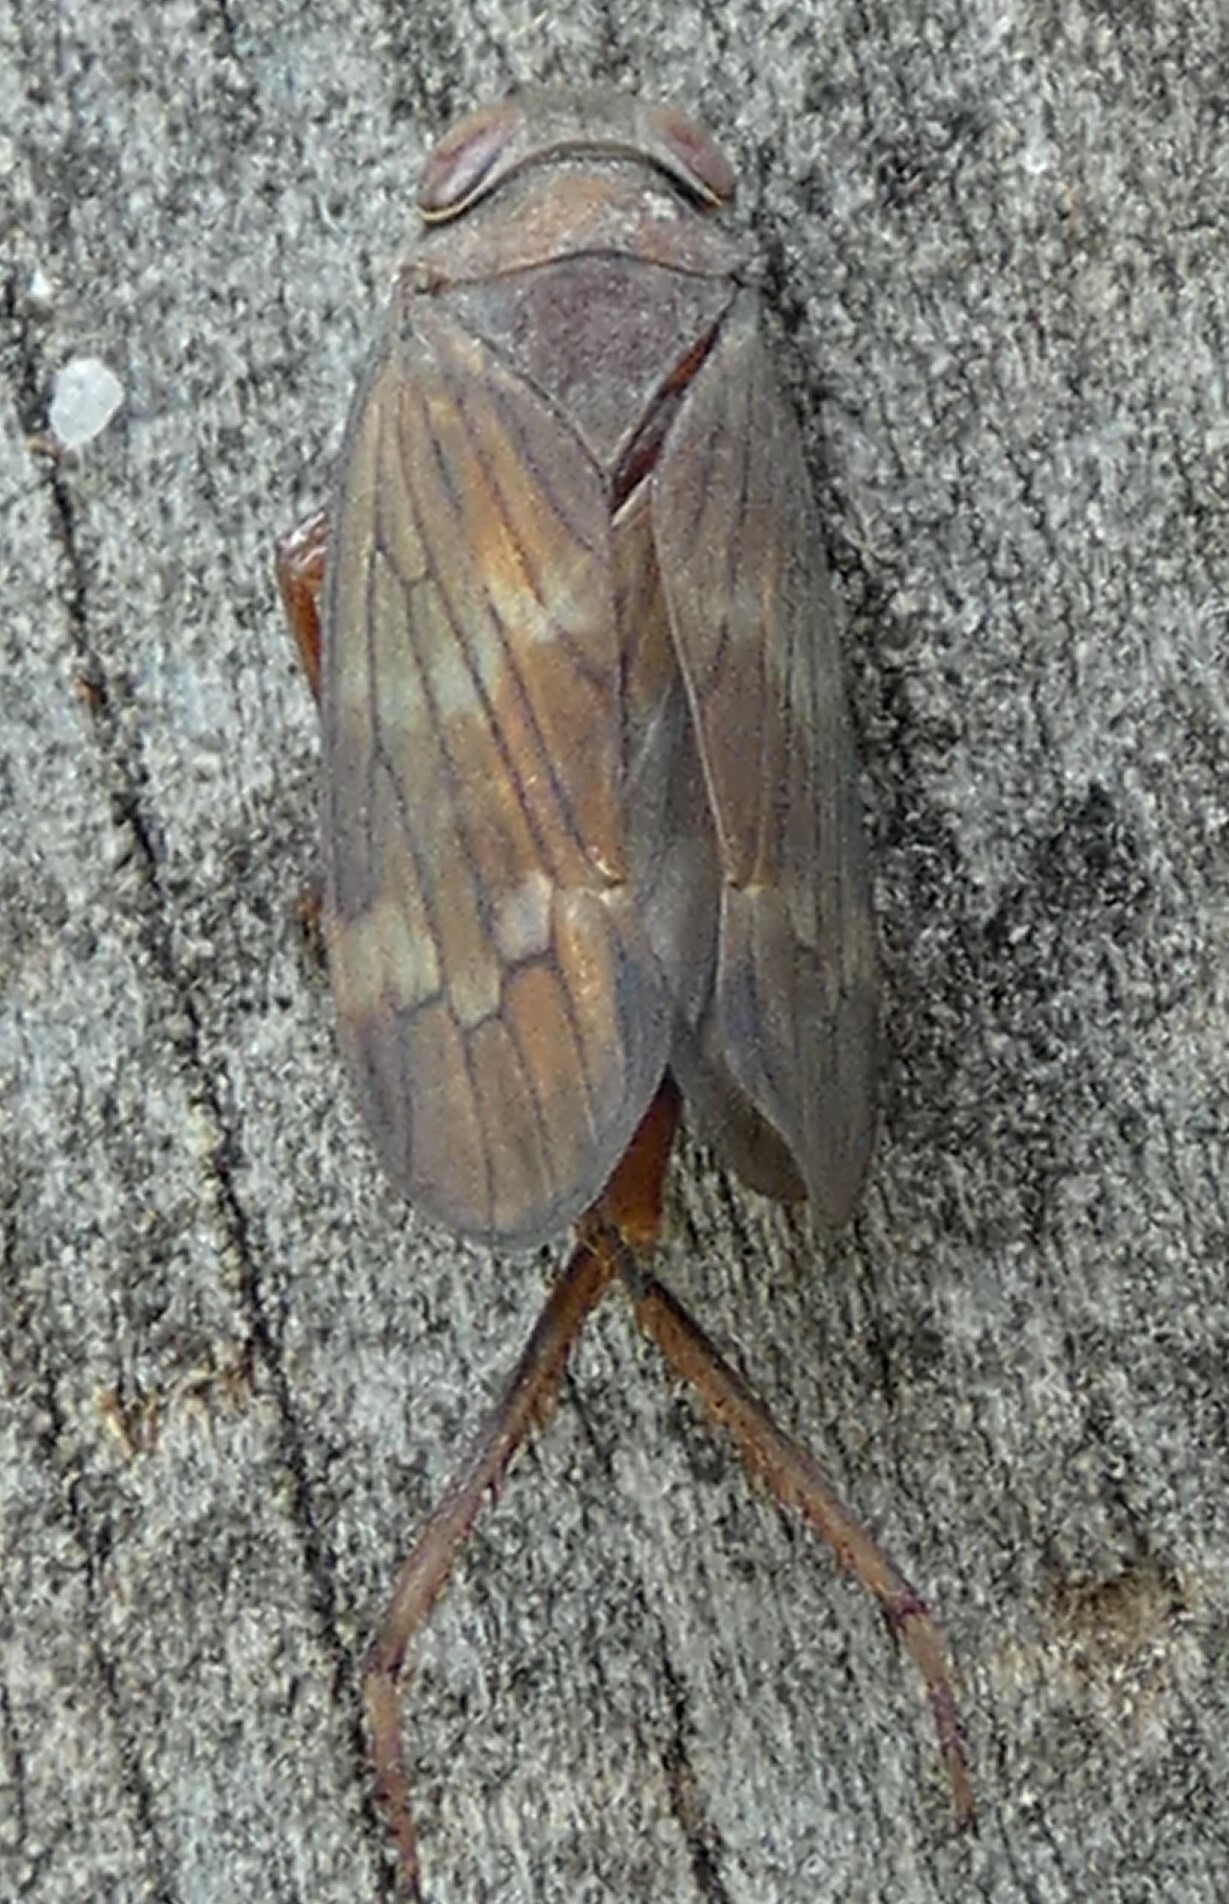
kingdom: Animalia
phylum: Arthropoda
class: Insecta
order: Hemiptera
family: Cicadellidae
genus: Jikradia
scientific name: Jikradia olitoria
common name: Coppery leafhopper
